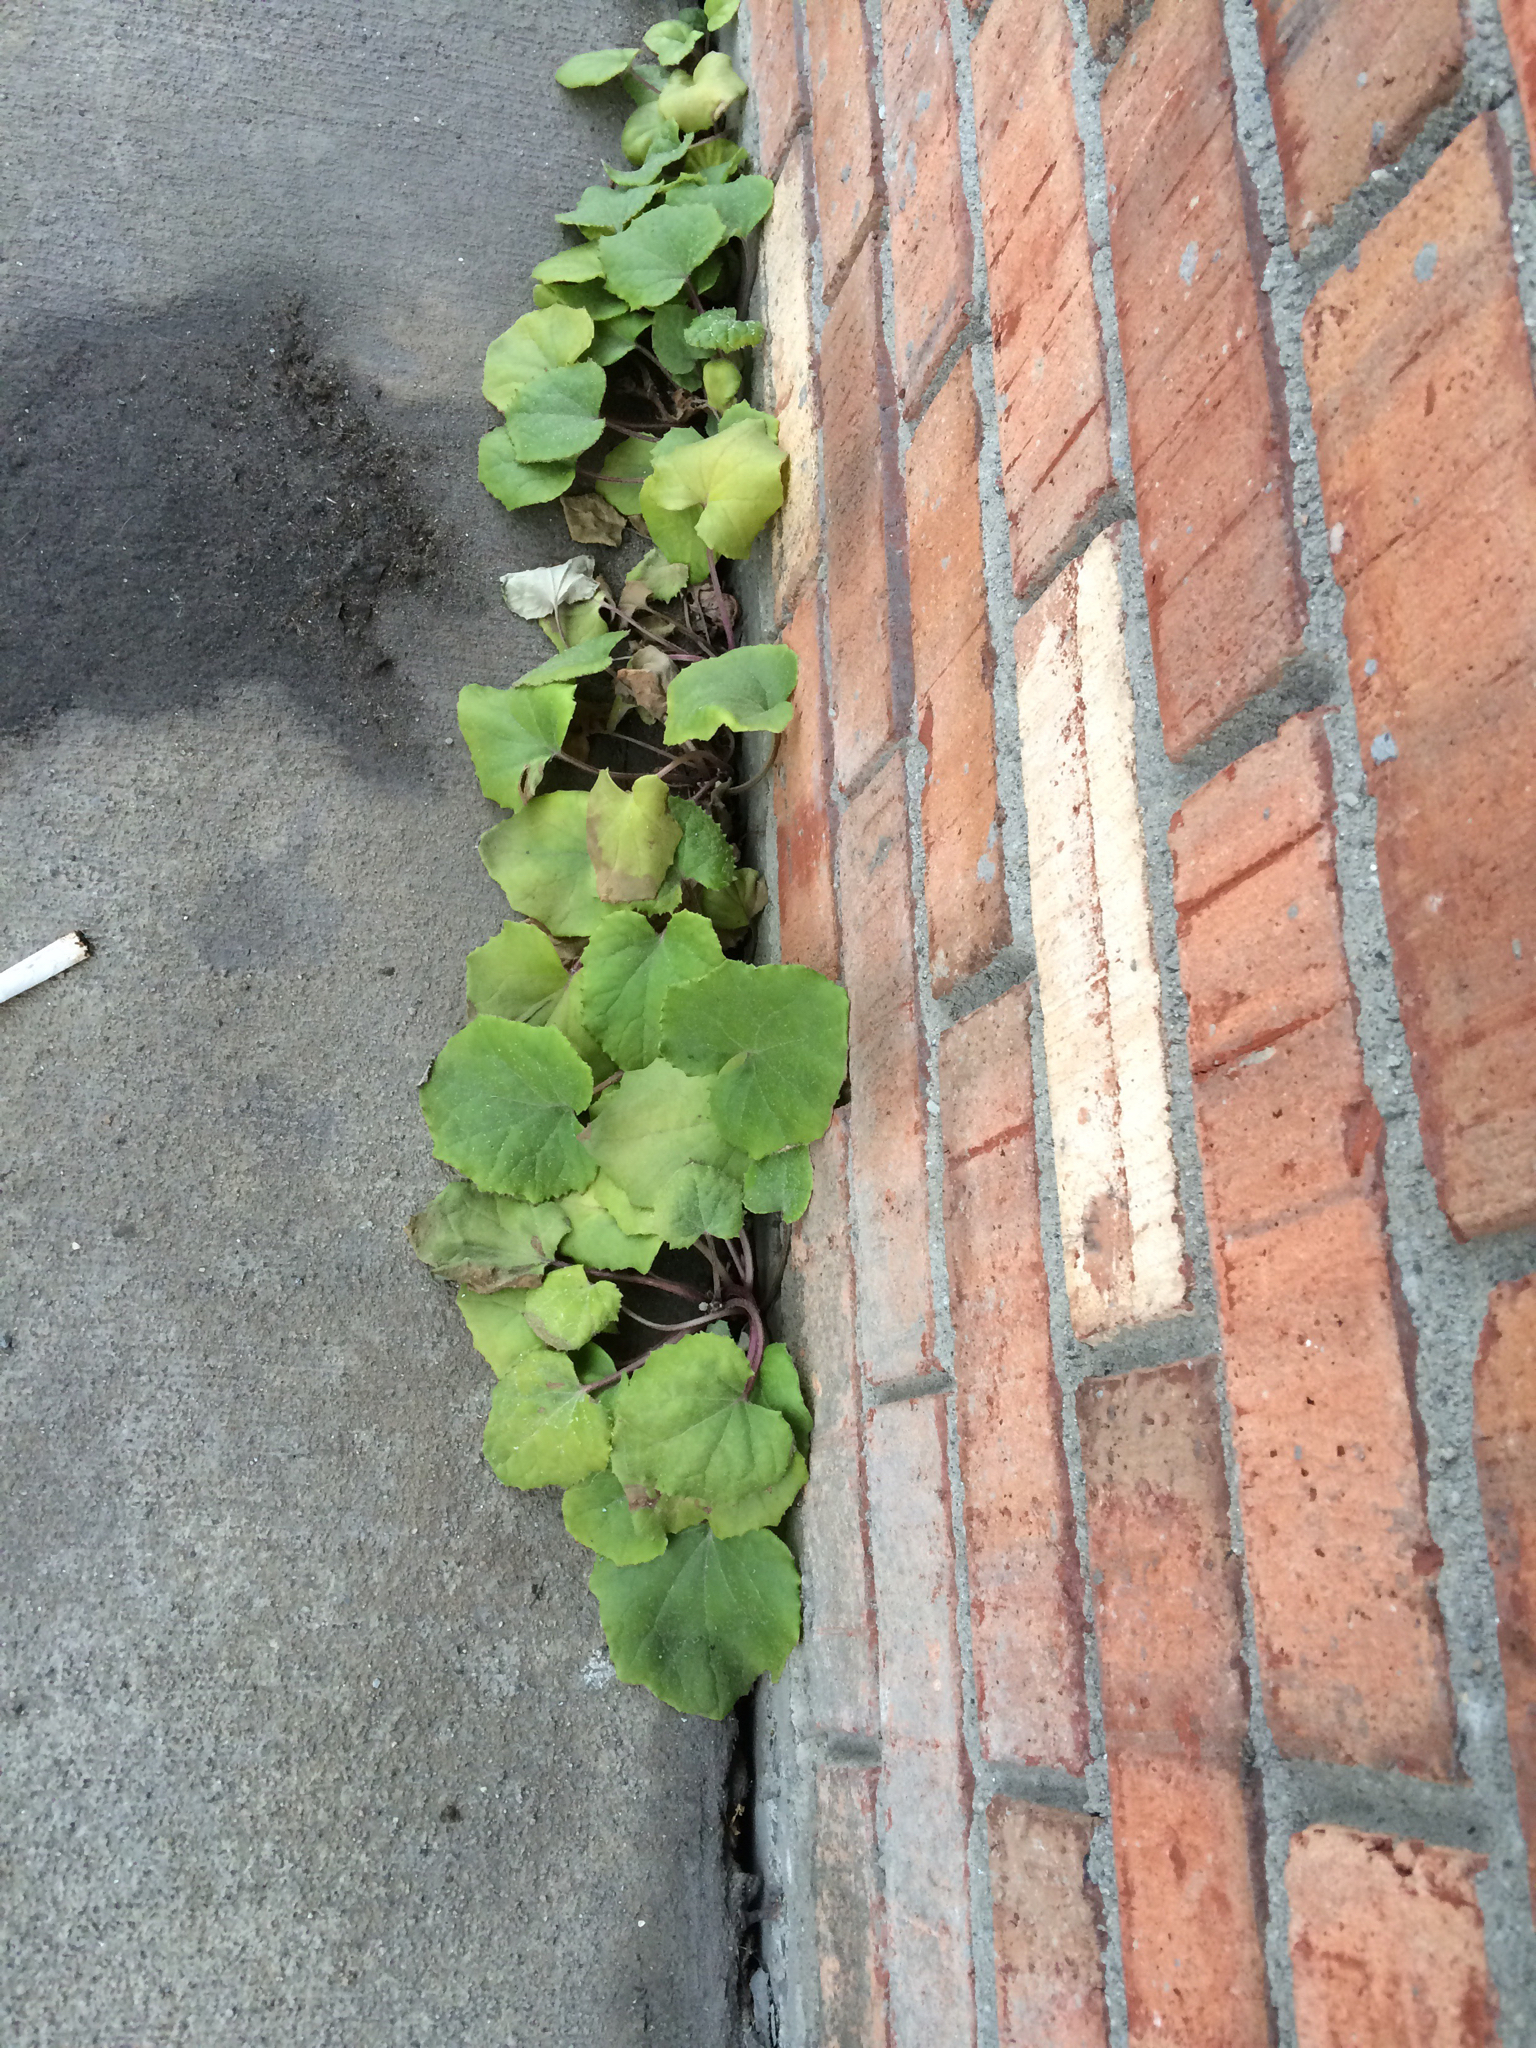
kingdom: Plantae
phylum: Tracheophyta
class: Magnoliopsida
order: Asterales
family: Asteraceae
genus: Tussilago
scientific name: Tussilago farfara
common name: Coltsfoot
